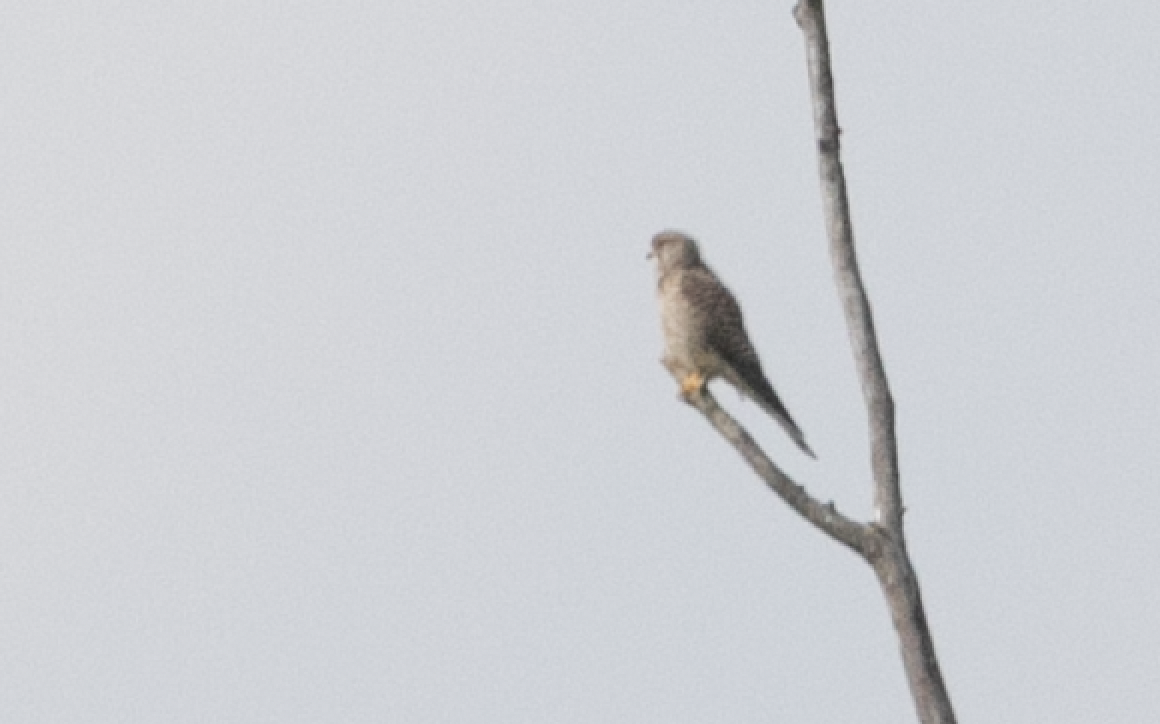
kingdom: Animalia
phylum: Chordata
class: Aves
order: Falconiformes
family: Falconidae
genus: Falco
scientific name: Falco tinnunculus
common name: Common kestrel
